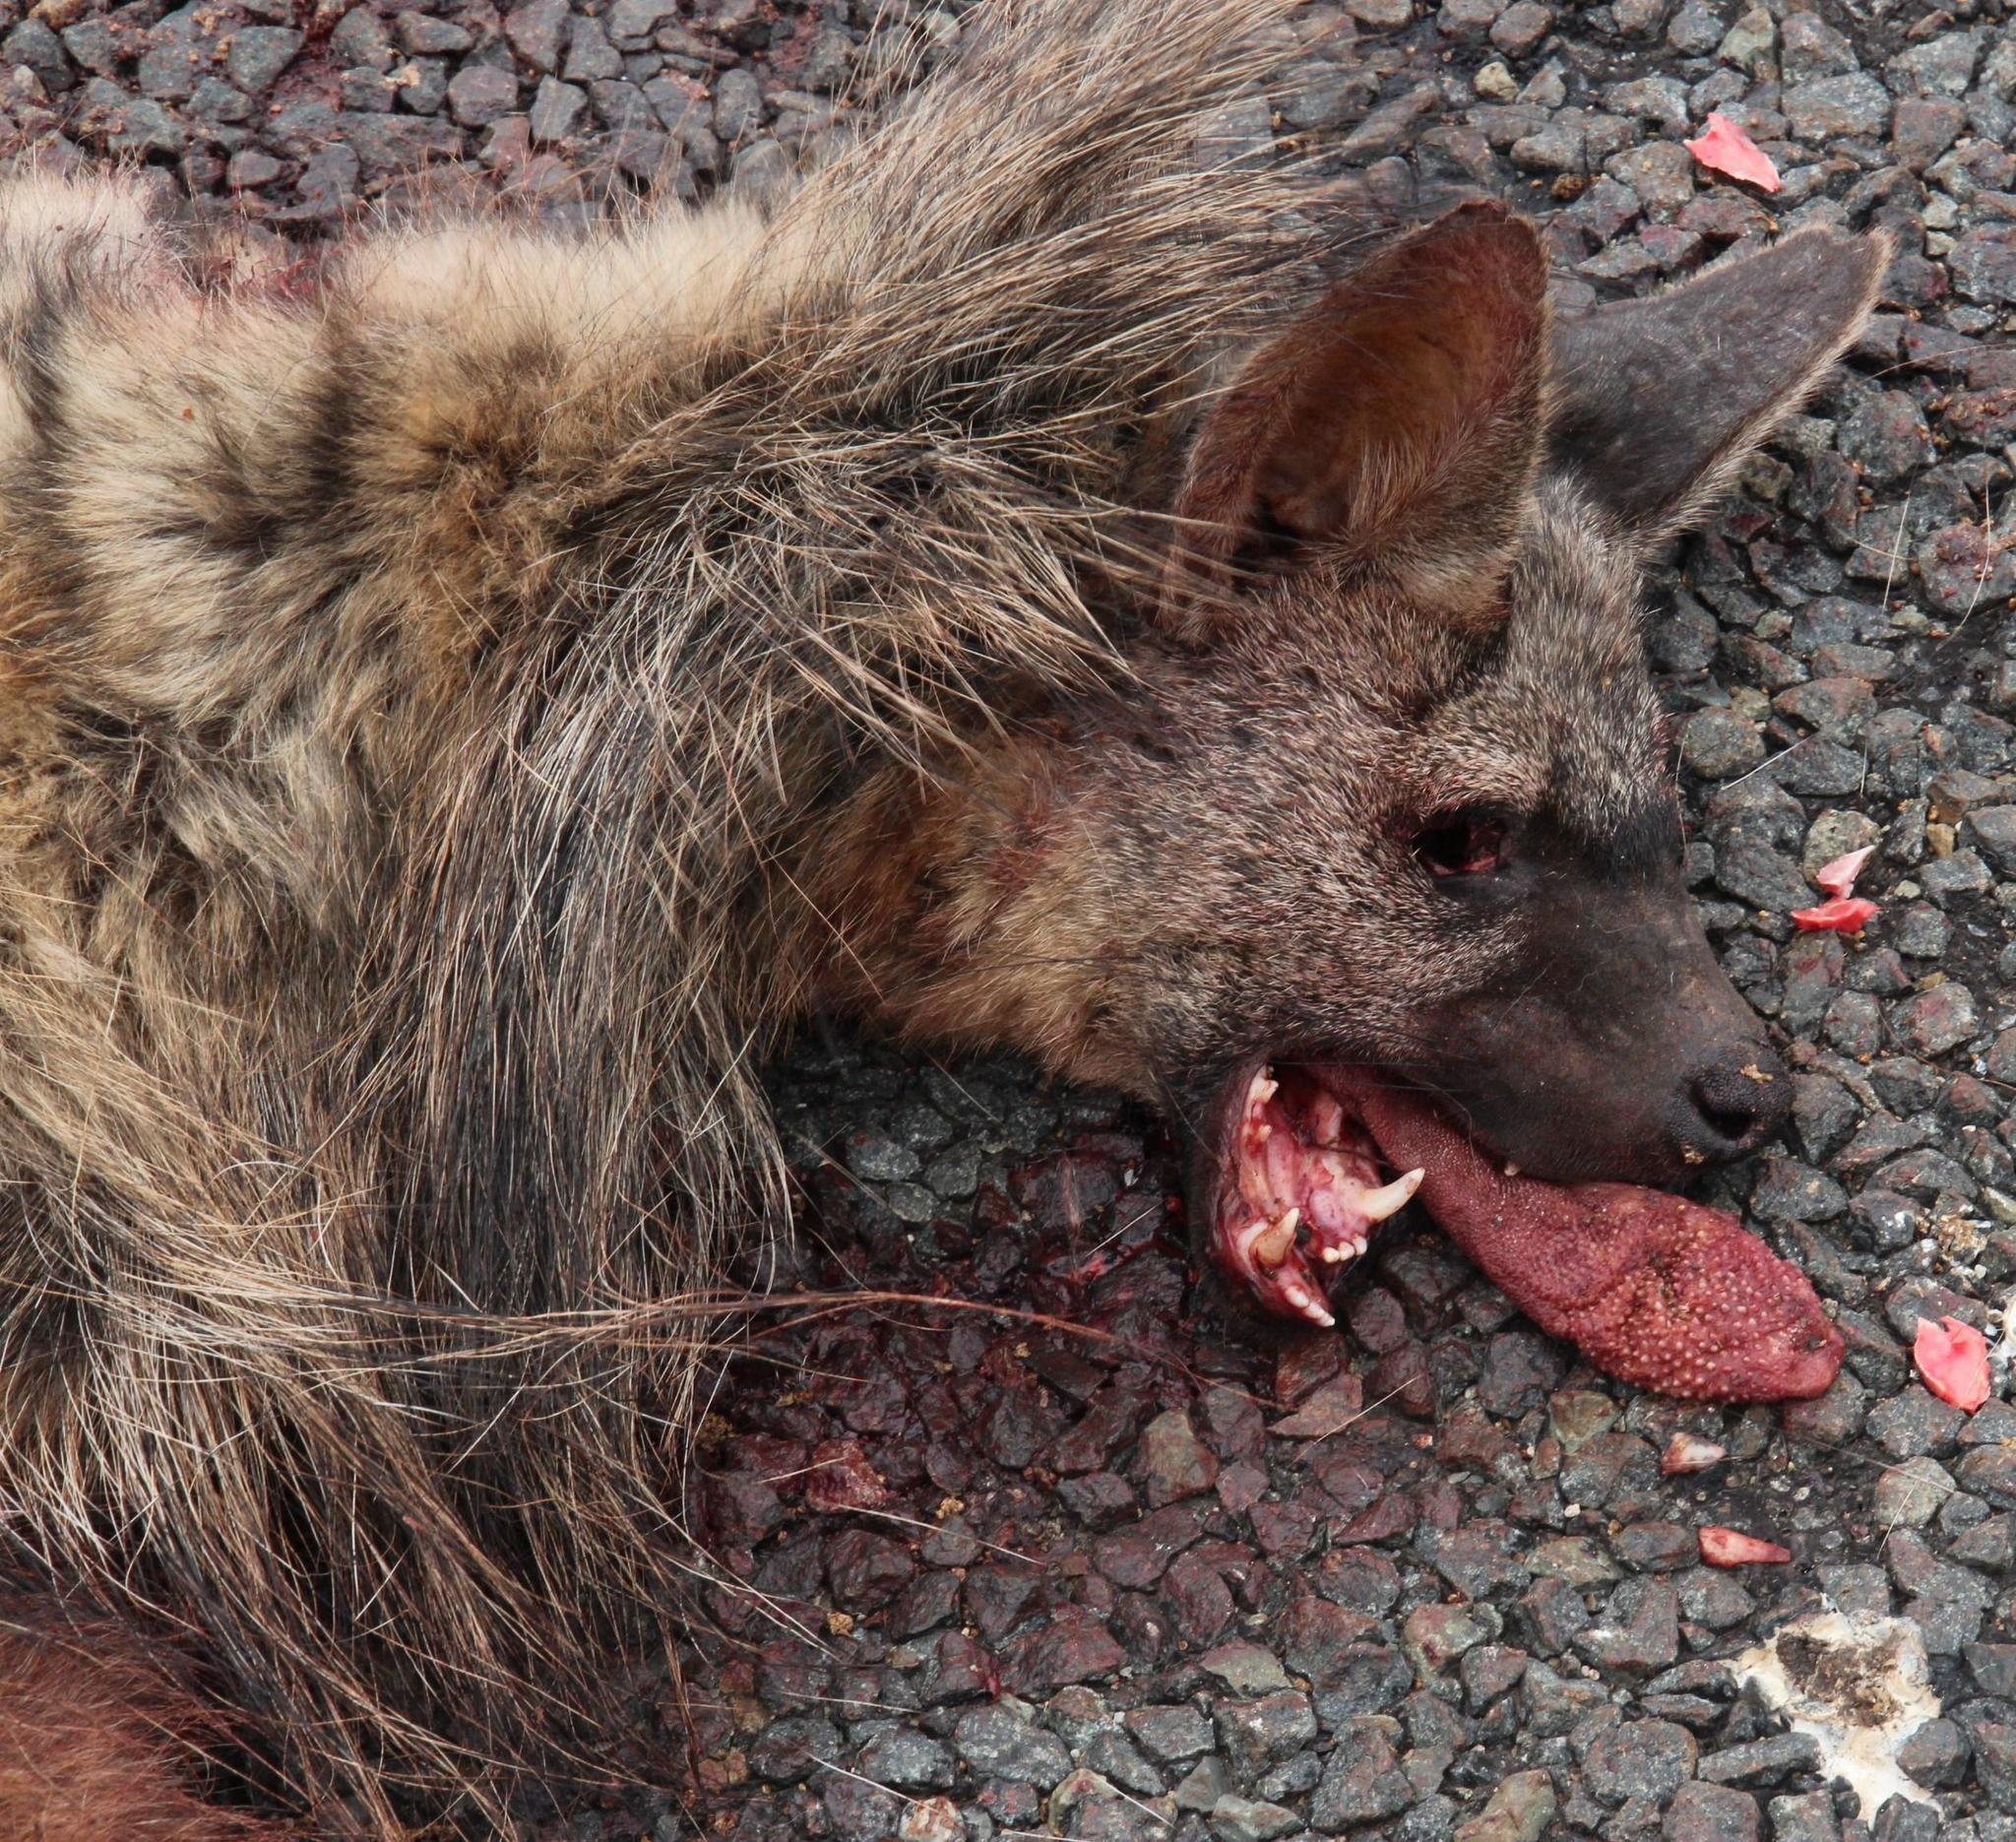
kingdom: Animalia
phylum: Chordata
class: Mammalia
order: Carnivora
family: Hyaenidae
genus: Proteles
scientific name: Proteles cristata
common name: Aardwolf
